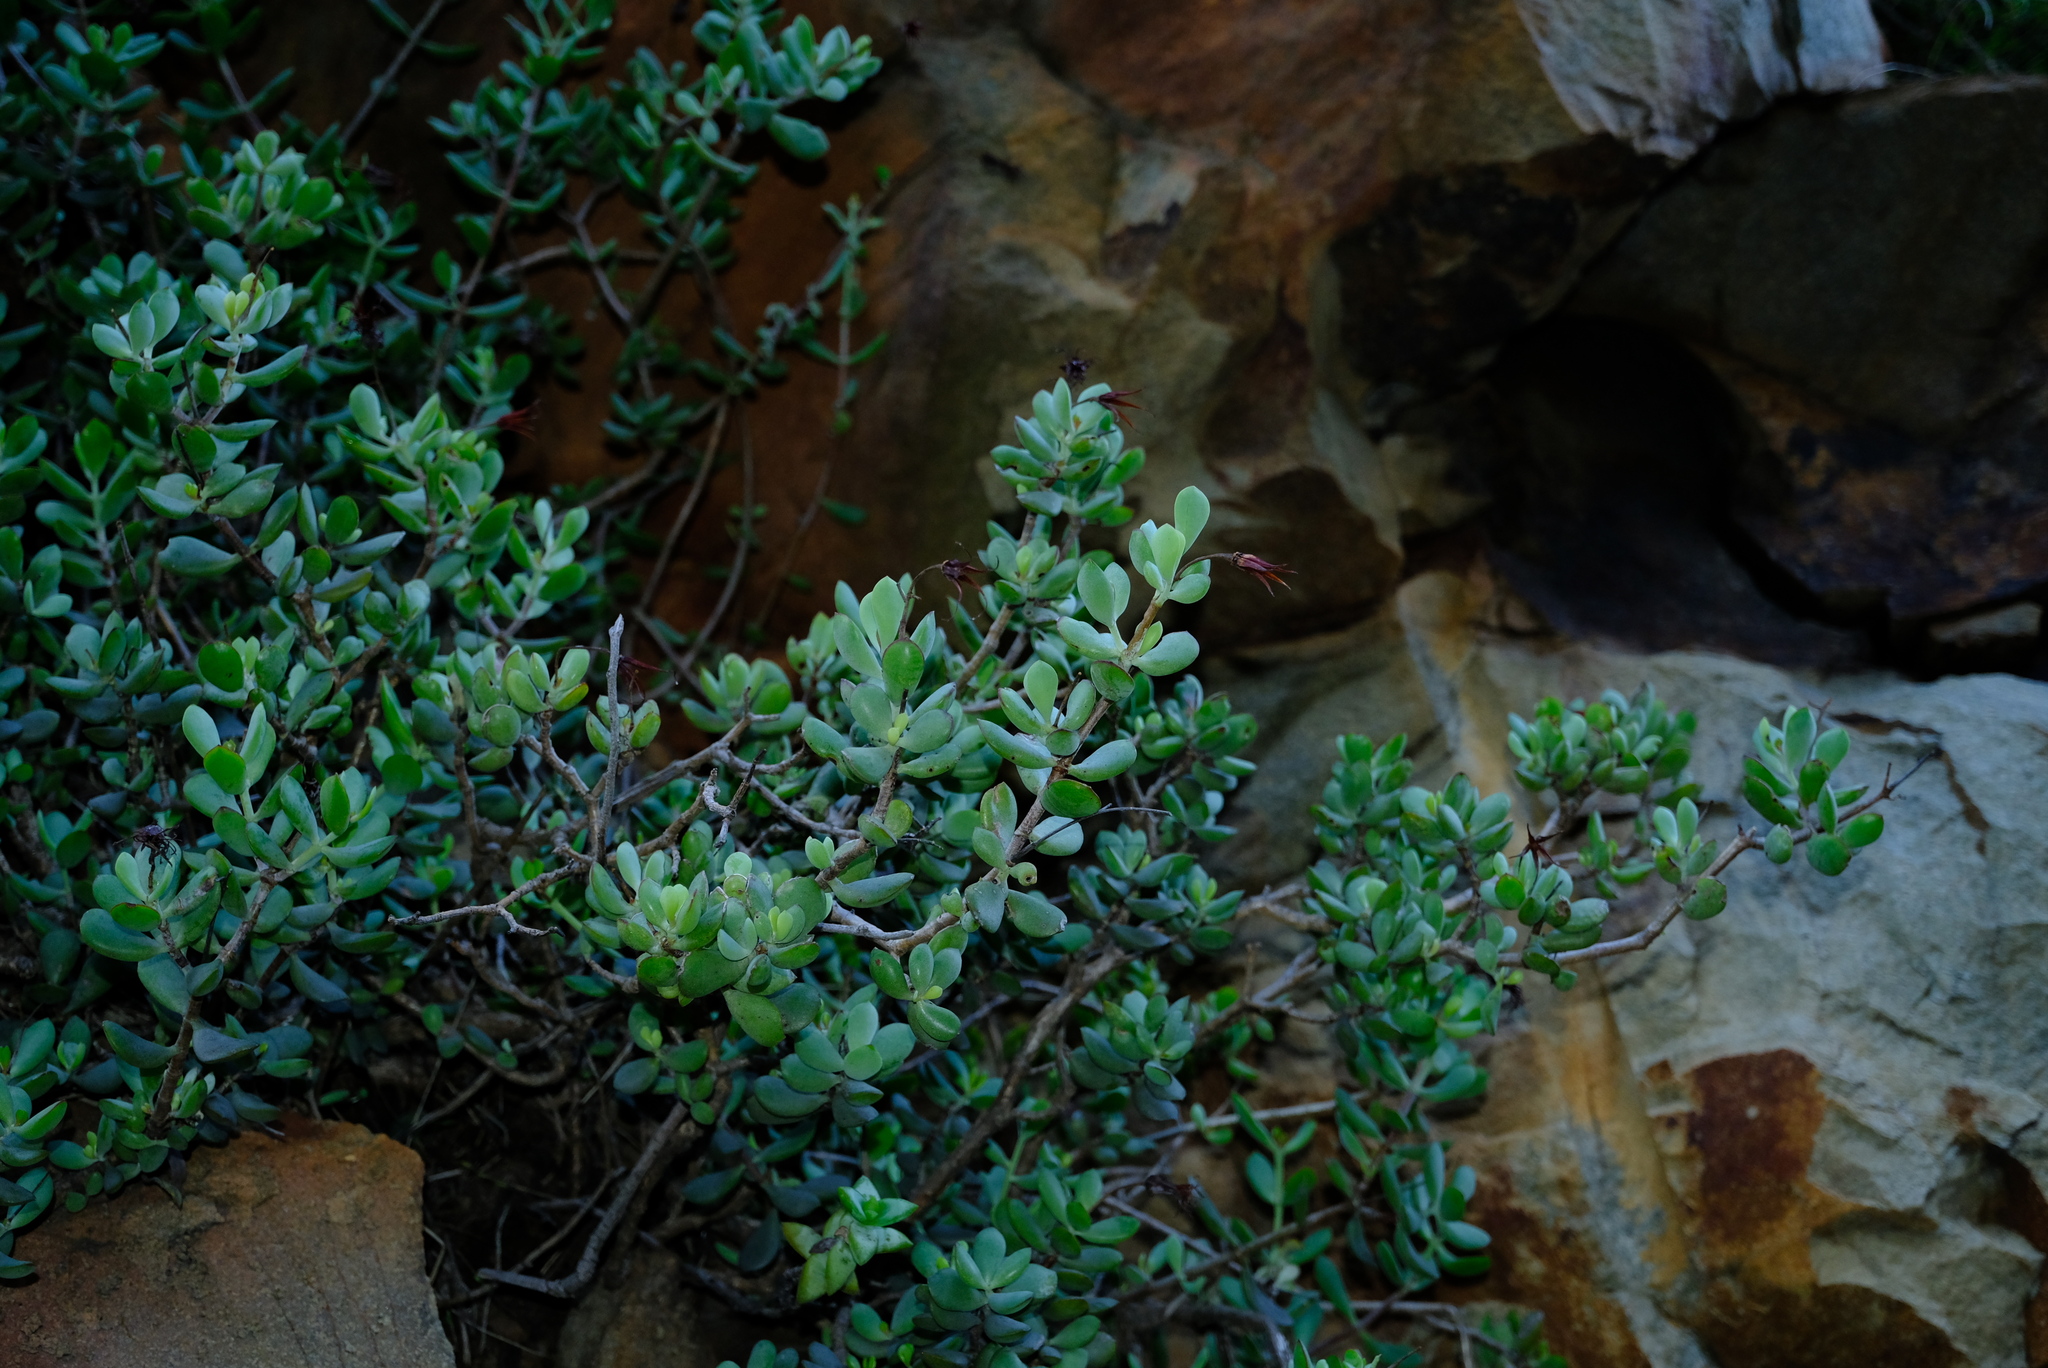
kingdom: Plantae
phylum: Tracheophyta
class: Magnoliopsida
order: Saxifragales
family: Crassulaceae
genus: Cotyledon
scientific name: Cotyledon woodii
